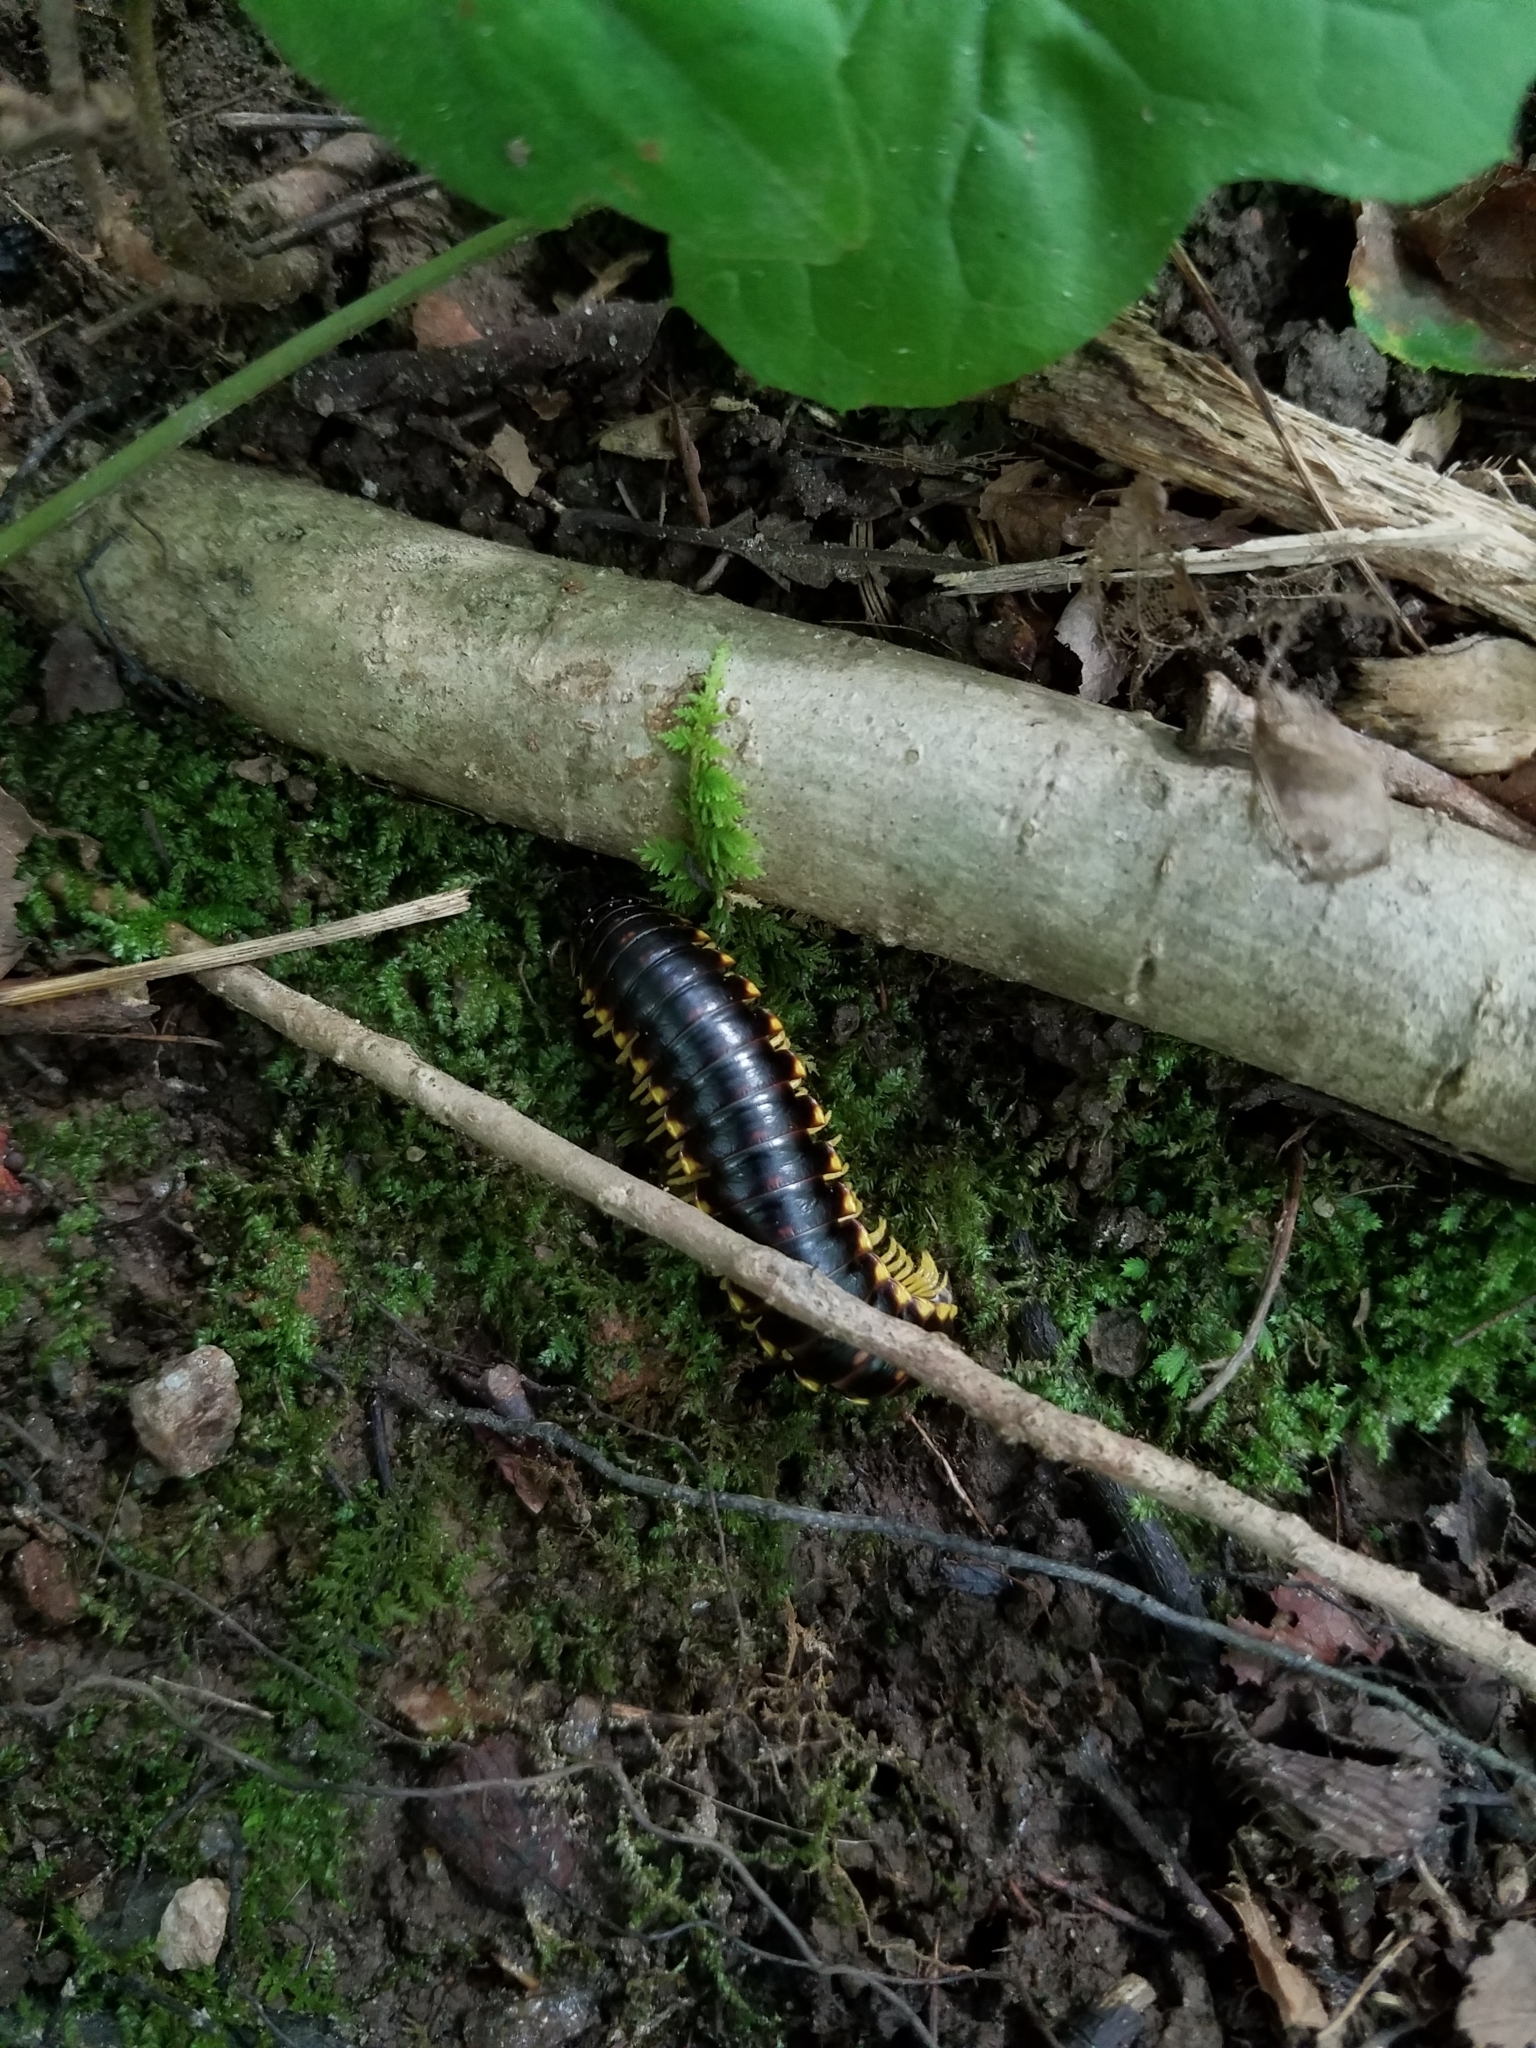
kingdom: Animalia
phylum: Arthropoda
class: Diplopoda
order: Polydesmida
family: Xystodesmidae
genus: Apheloria
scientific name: Apheloria tigana
